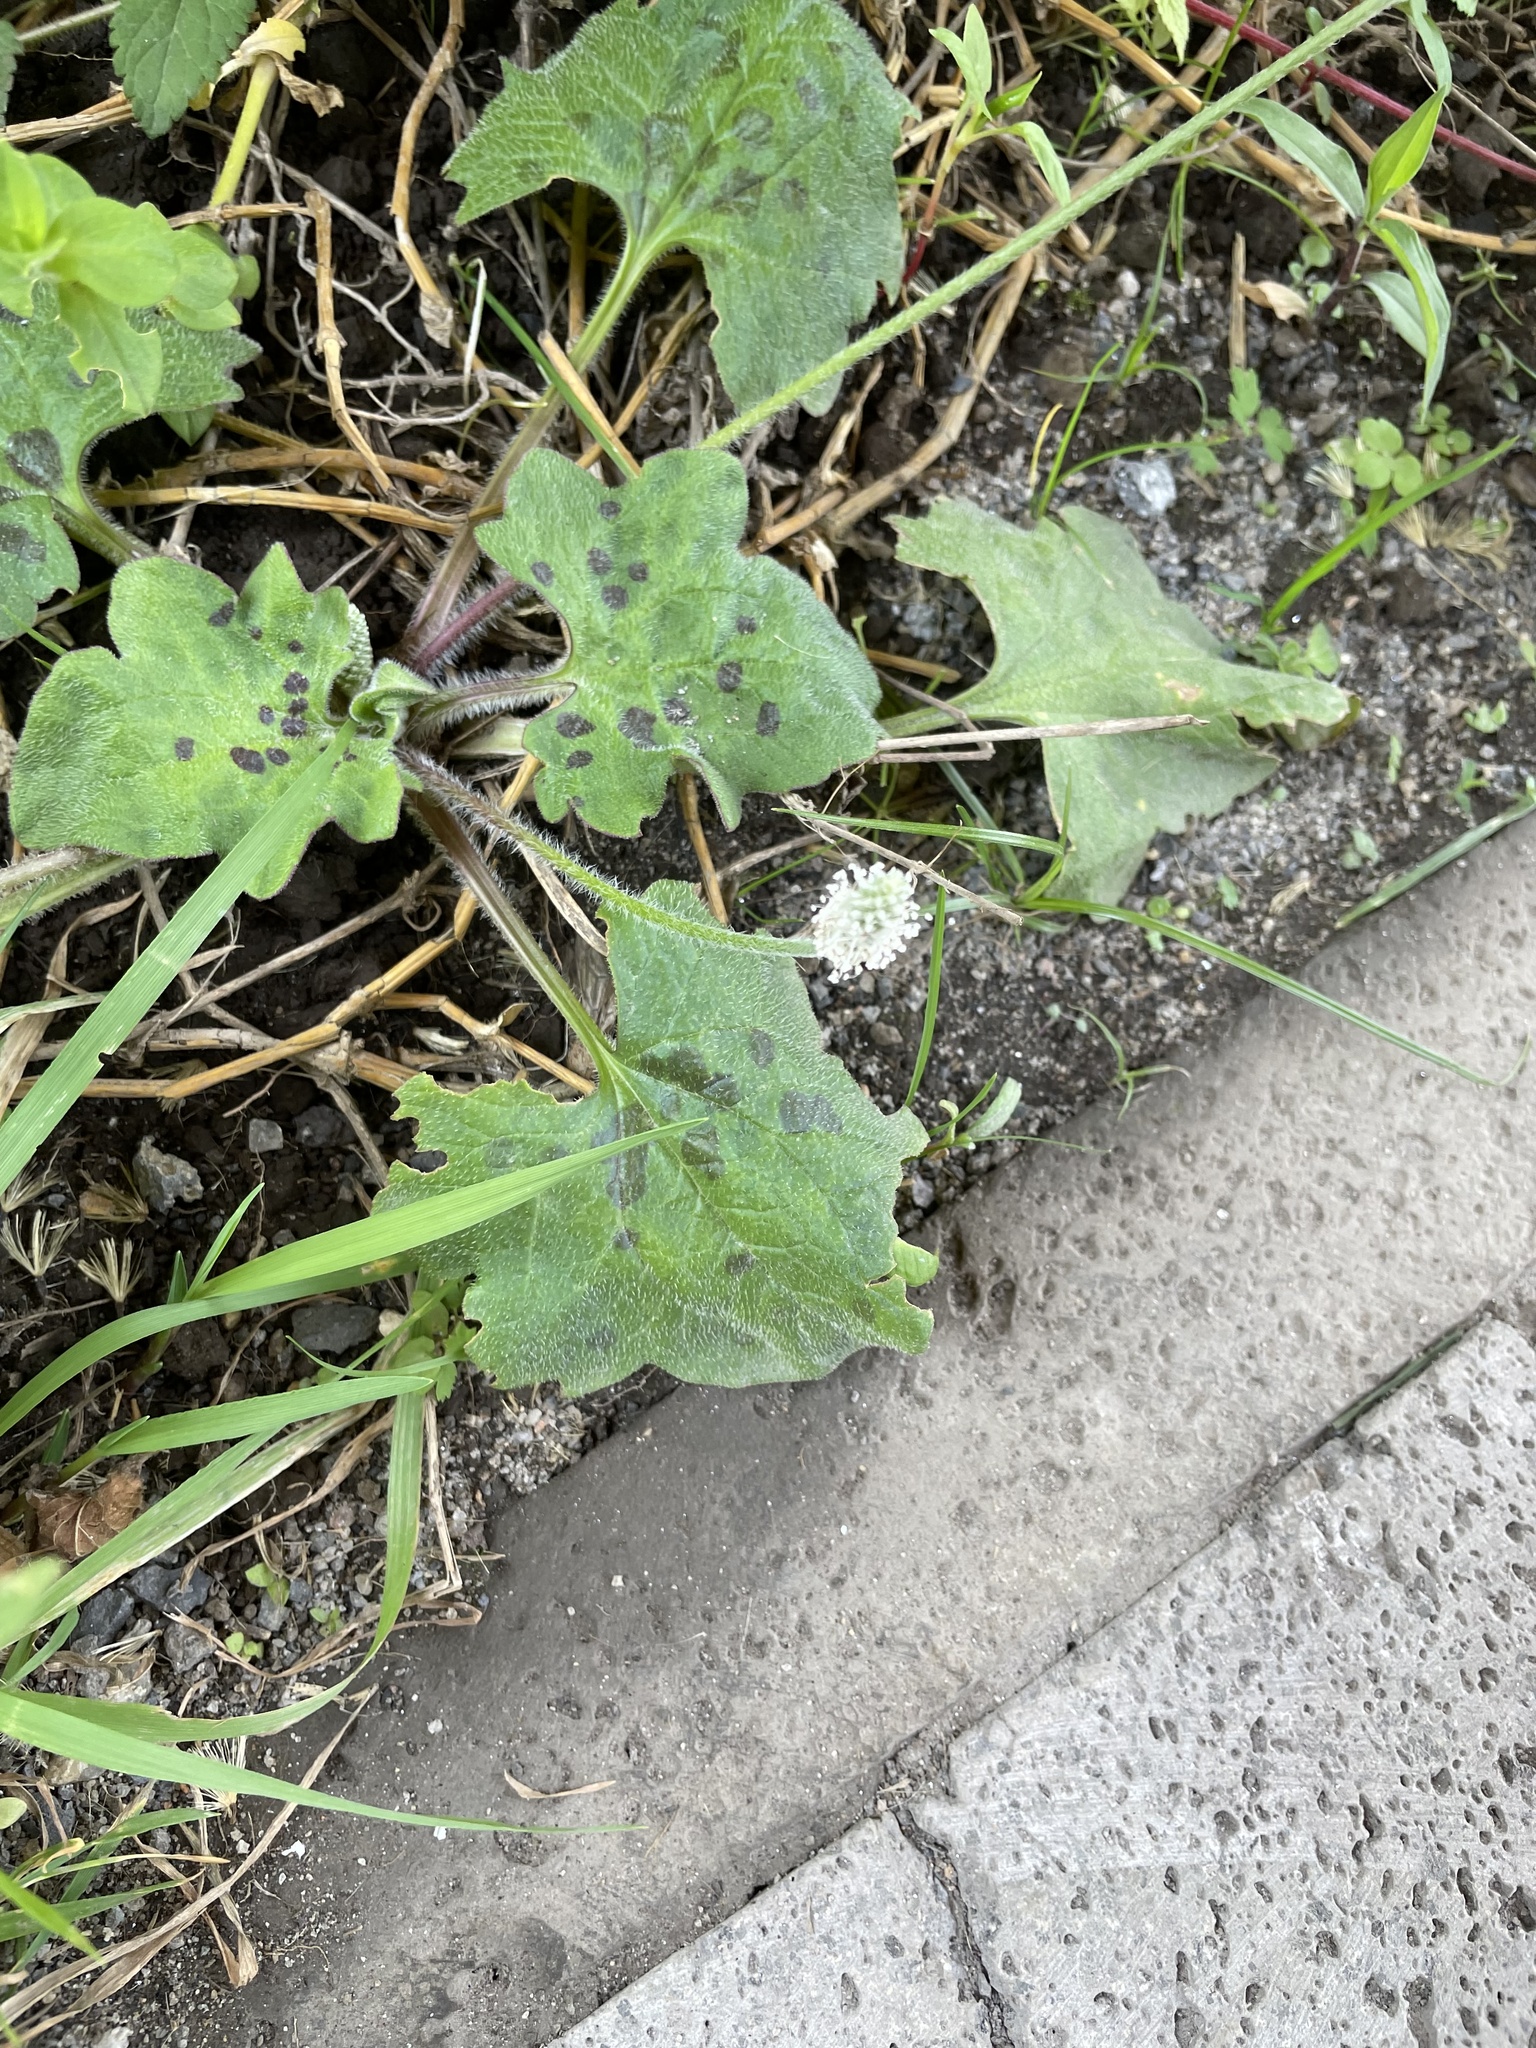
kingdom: Plantae
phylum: Tracheophyta
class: Magnoliopsida
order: Lamiales
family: Plantaginaceae
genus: Plantago
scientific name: Plantago palmata
